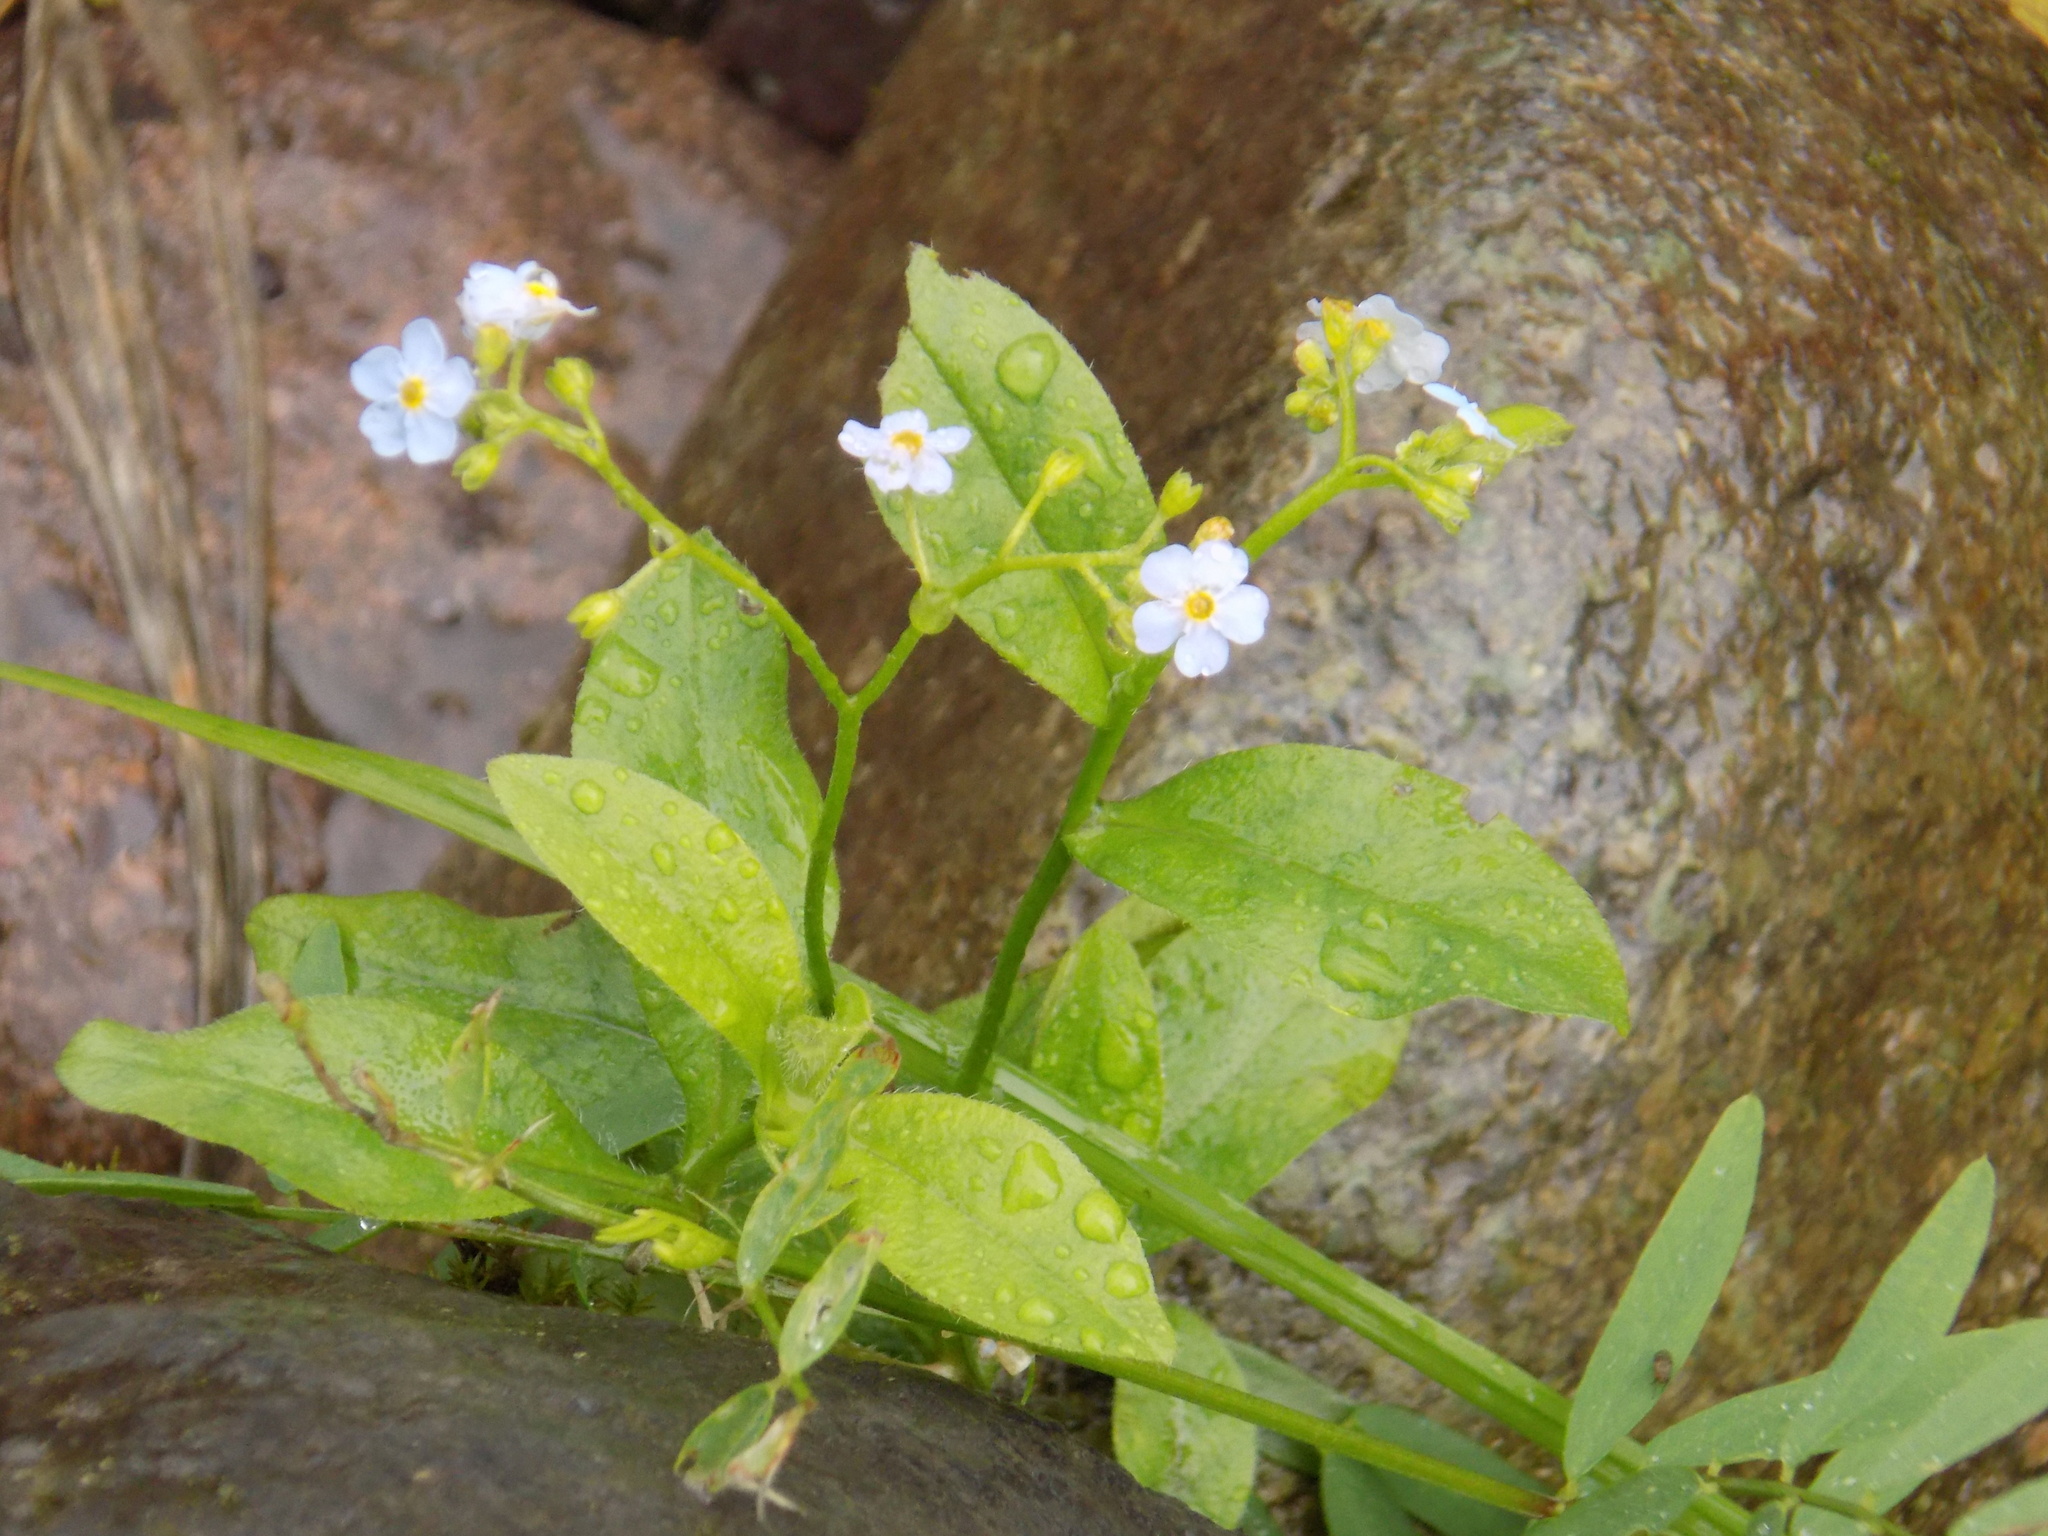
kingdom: Plantae
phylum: Tracheophyta
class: Magnoliopsida
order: Boraginales
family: Boraginaceae
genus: Myosotis
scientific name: Myosotis scorpioides
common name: Water forget-me-not
